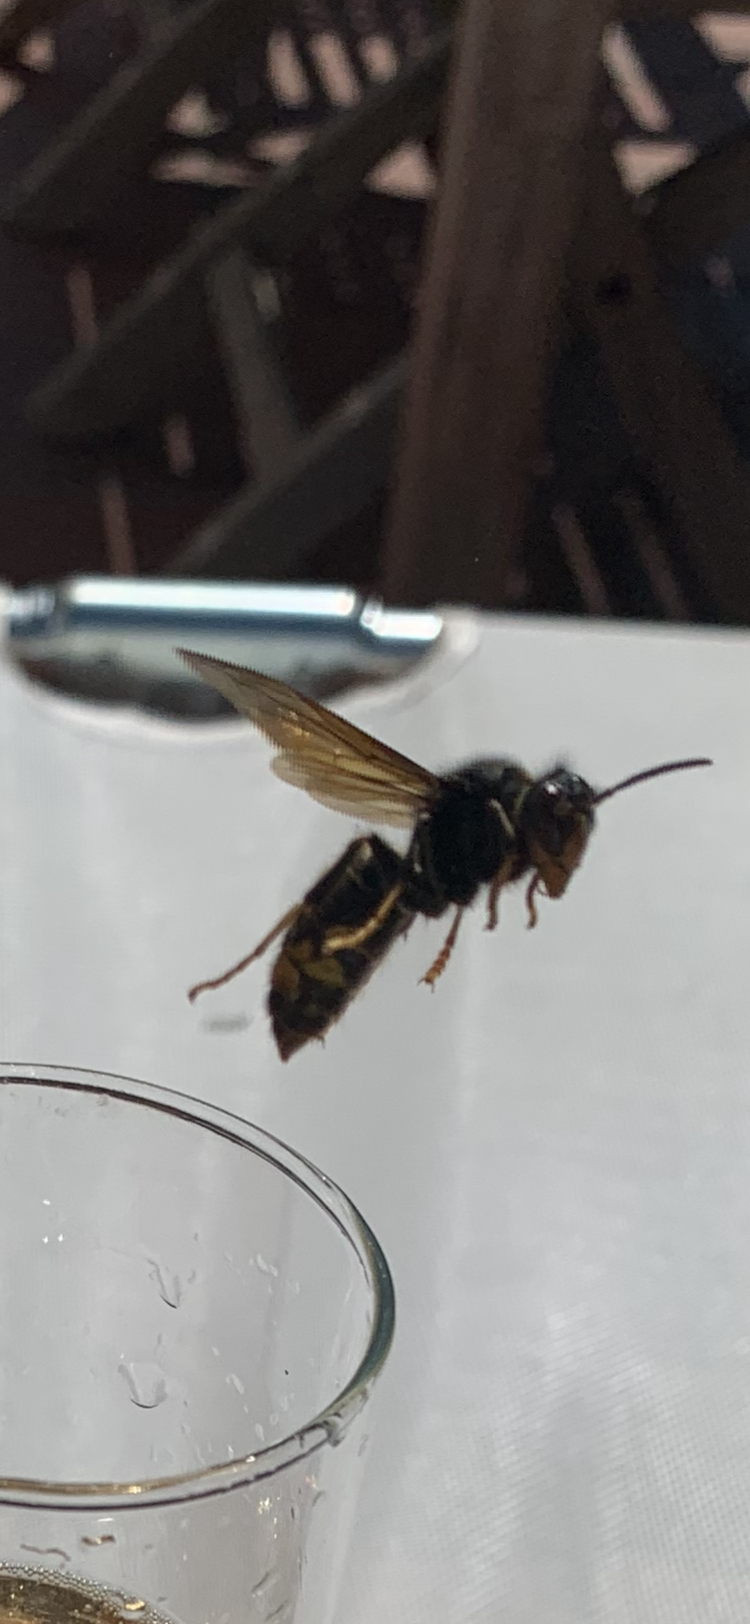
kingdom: Animalia
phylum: Arthropoda
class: Insecta
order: Hymenoptera
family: Vespidae
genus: Vespa
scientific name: Vespa velutina
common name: Asian hornet
